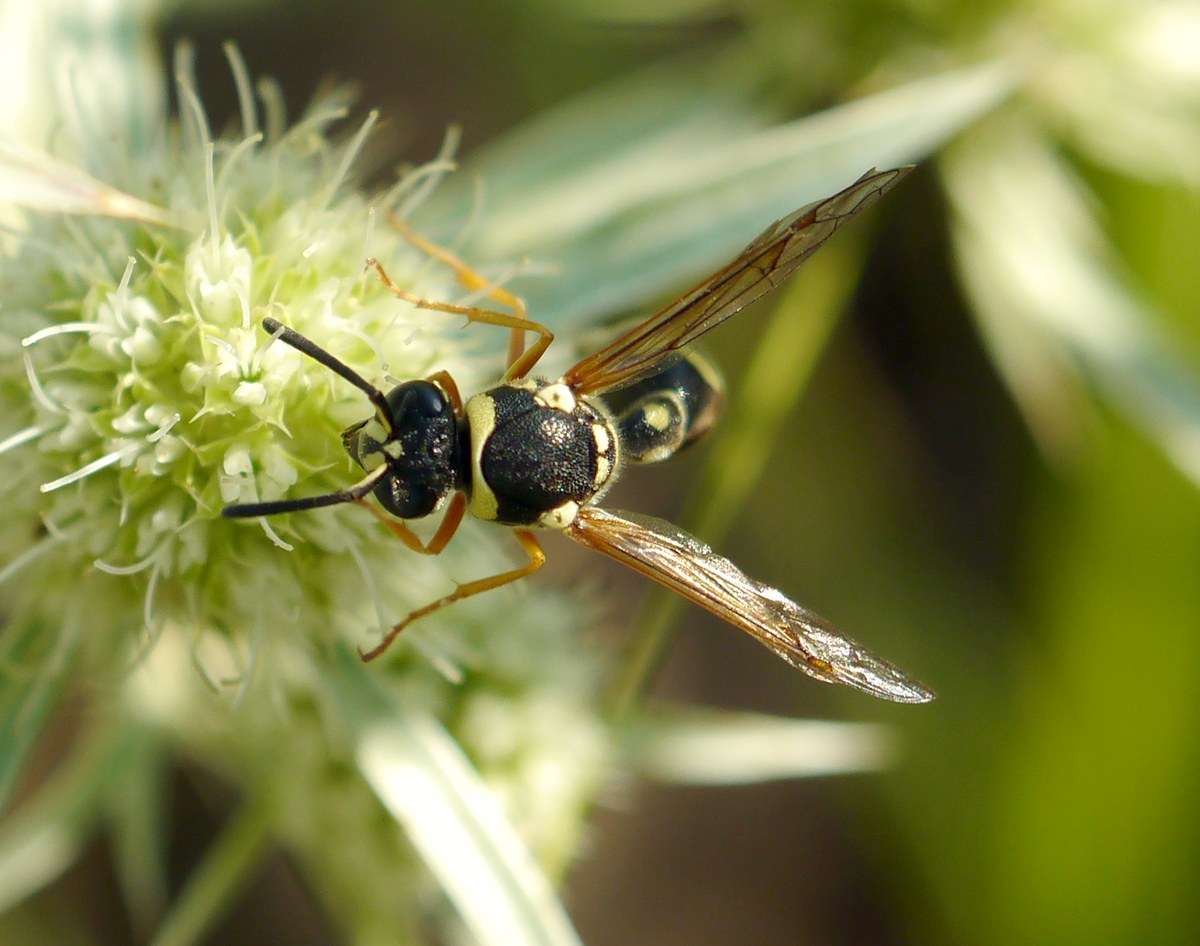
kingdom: Animalia
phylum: Arthropoda
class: Insecta
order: Hymenoptera
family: Vespidae
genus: Eumenes
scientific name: Eumenes sareptanus
